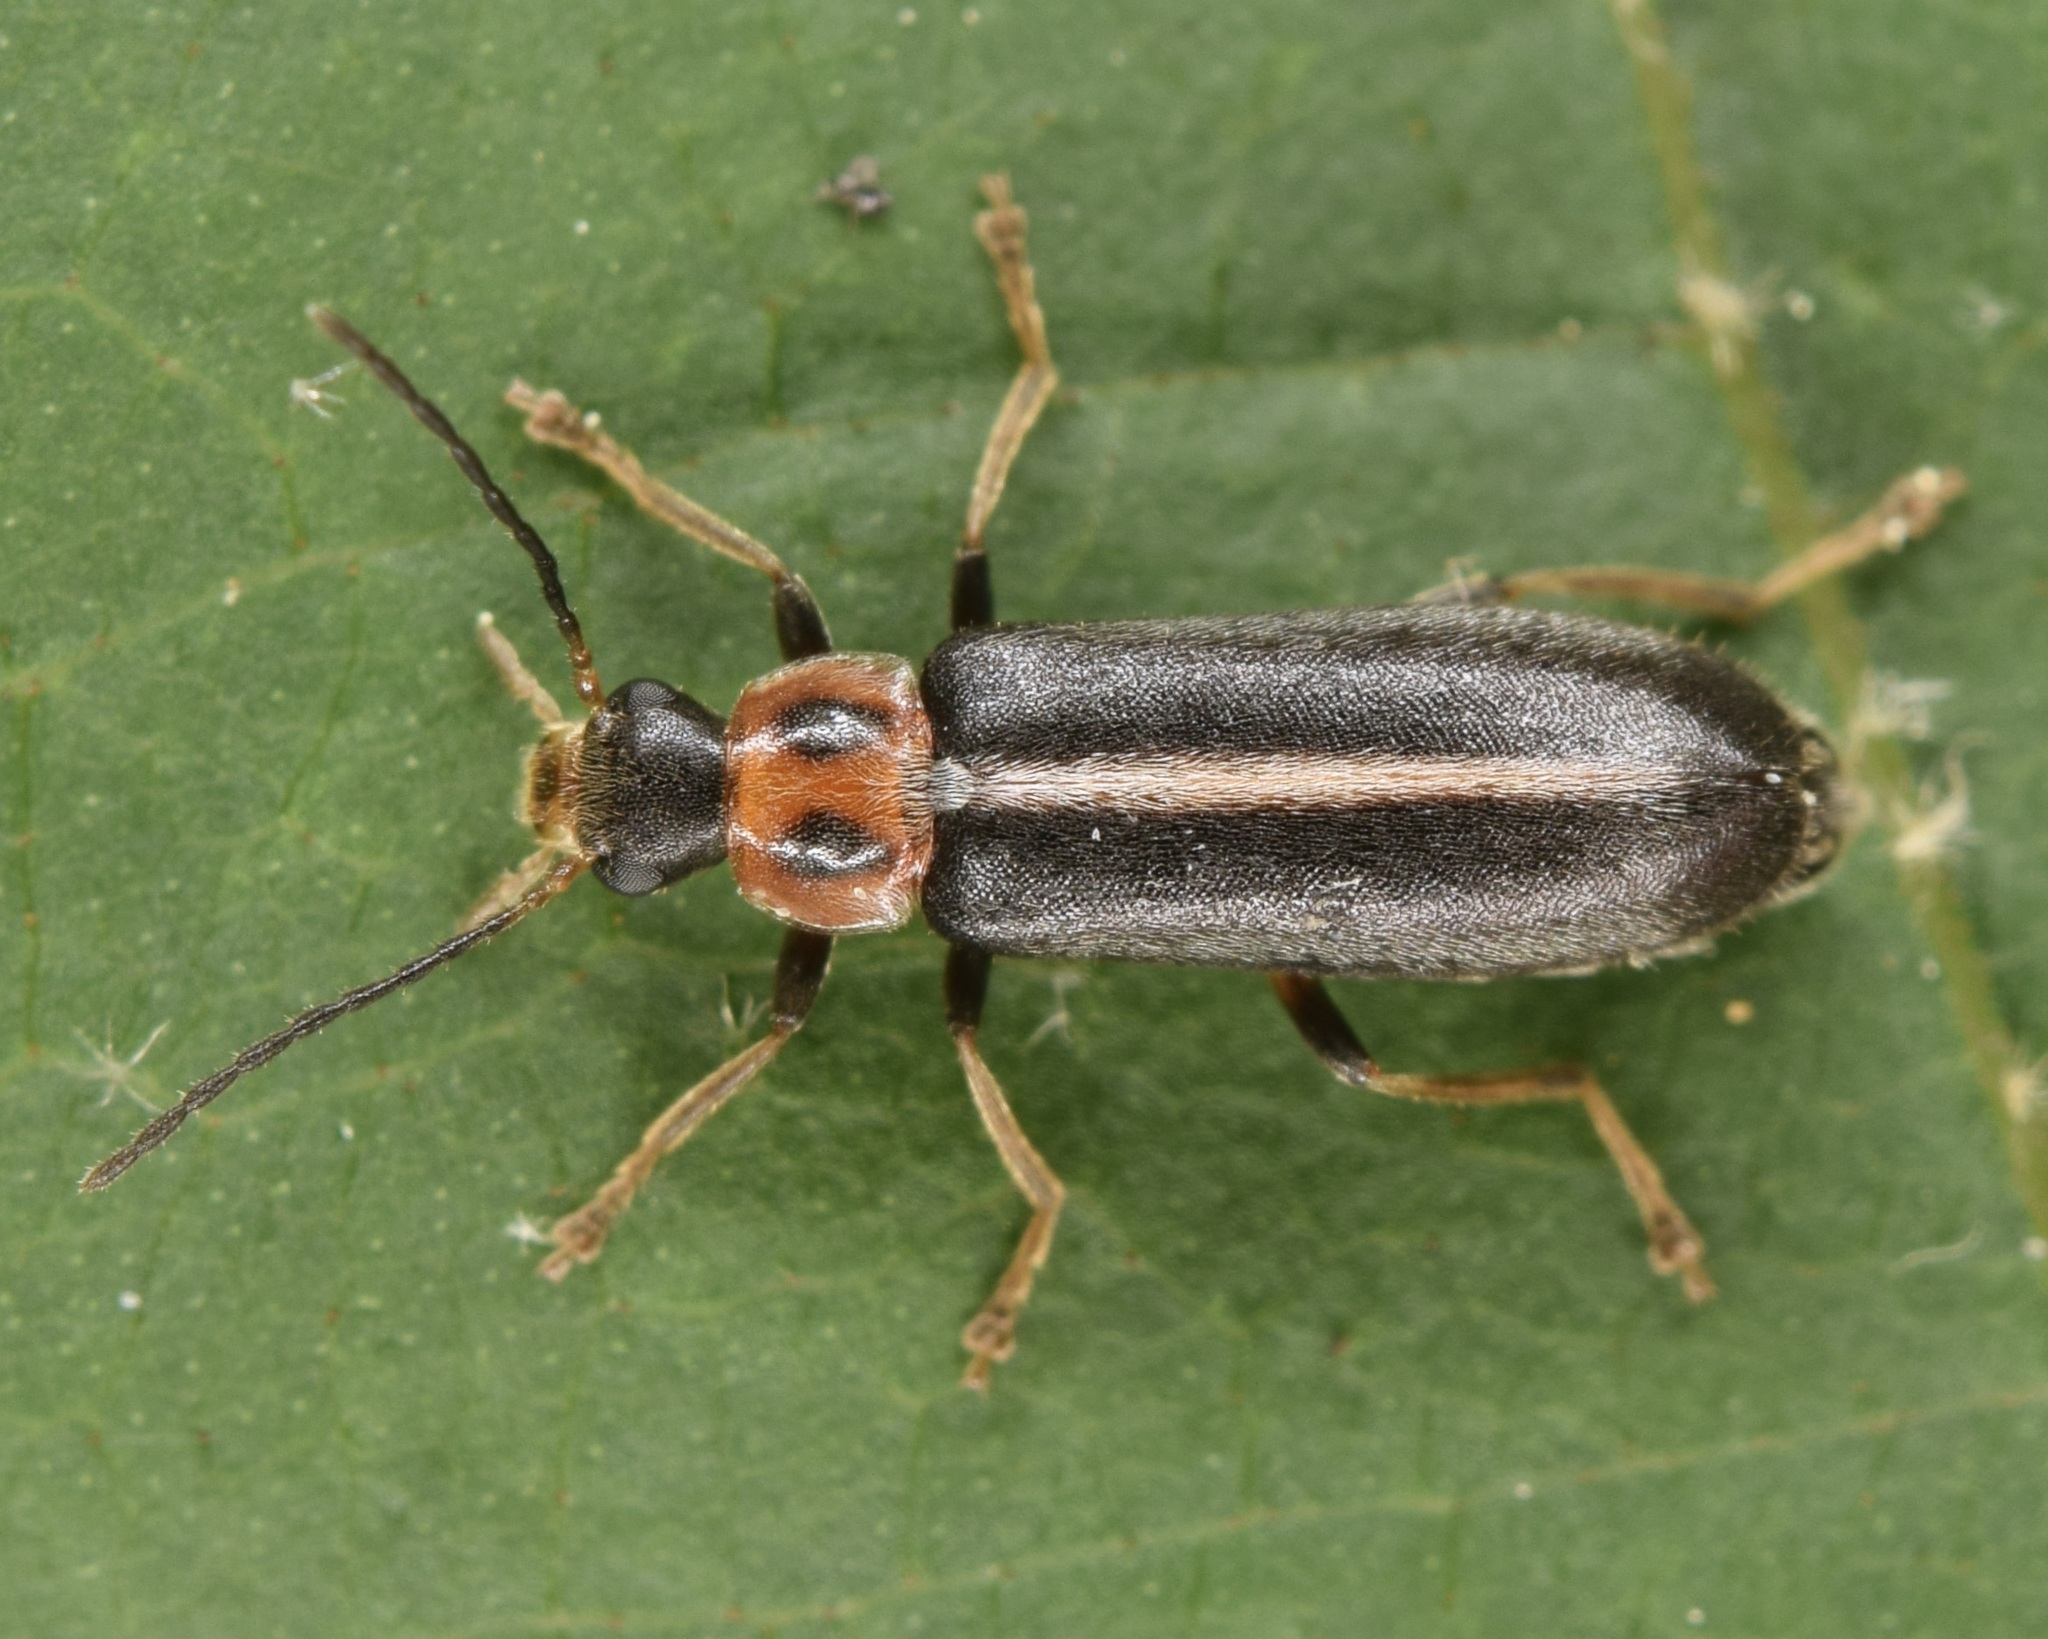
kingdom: Animalia
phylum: Arthropoda
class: Insecta
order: Coleoptera
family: Melandryidae
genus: Osphya
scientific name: Osphya varians
